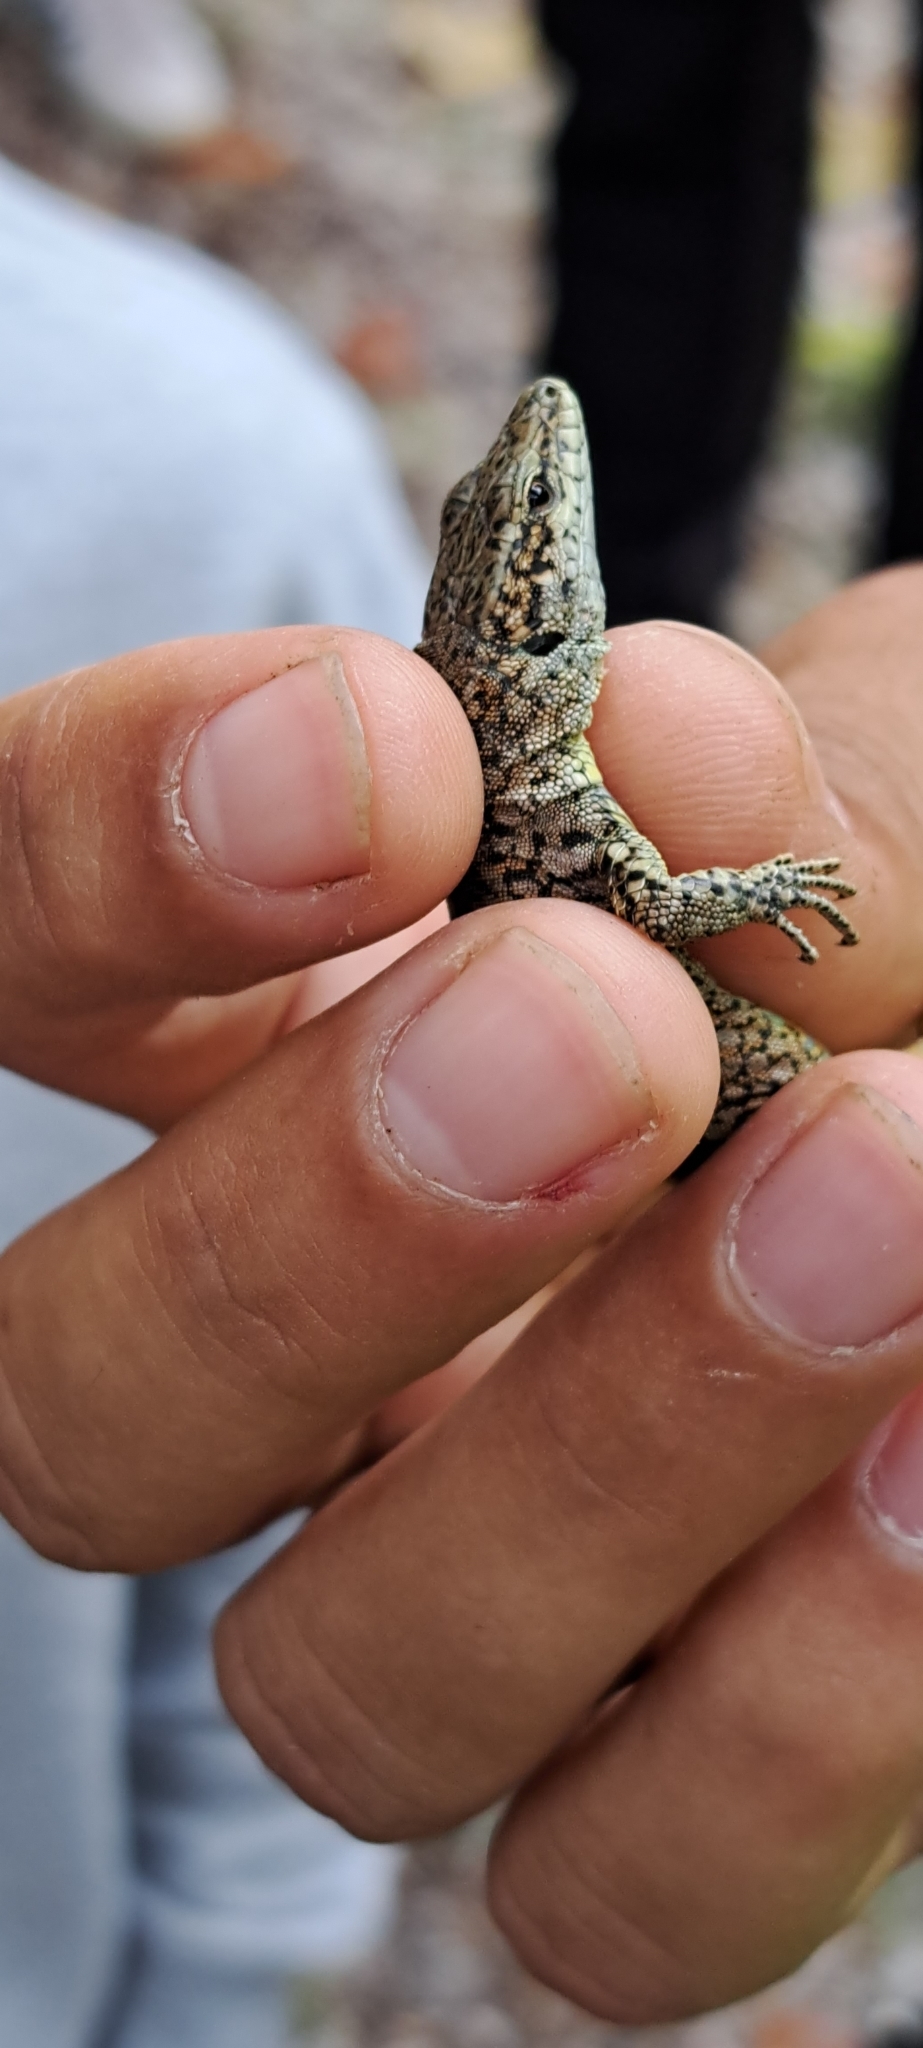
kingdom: Animalia
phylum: Chordata
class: Squamata
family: Lacertidae
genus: Podarcis
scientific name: Podarcis virescens
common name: Geniez’s wall lizard
